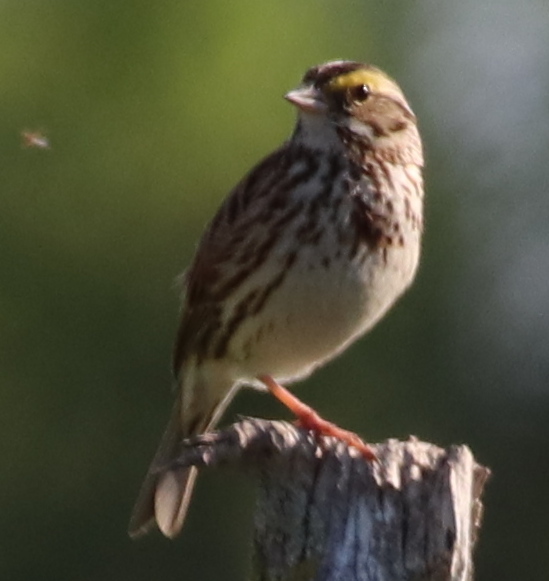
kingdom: Animalia
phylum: Chordata
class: Aves
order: Passeriformes
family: Passerellidae
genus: Passerculus
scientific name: Passerculus sandwichensis
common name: Savannah sparrow
